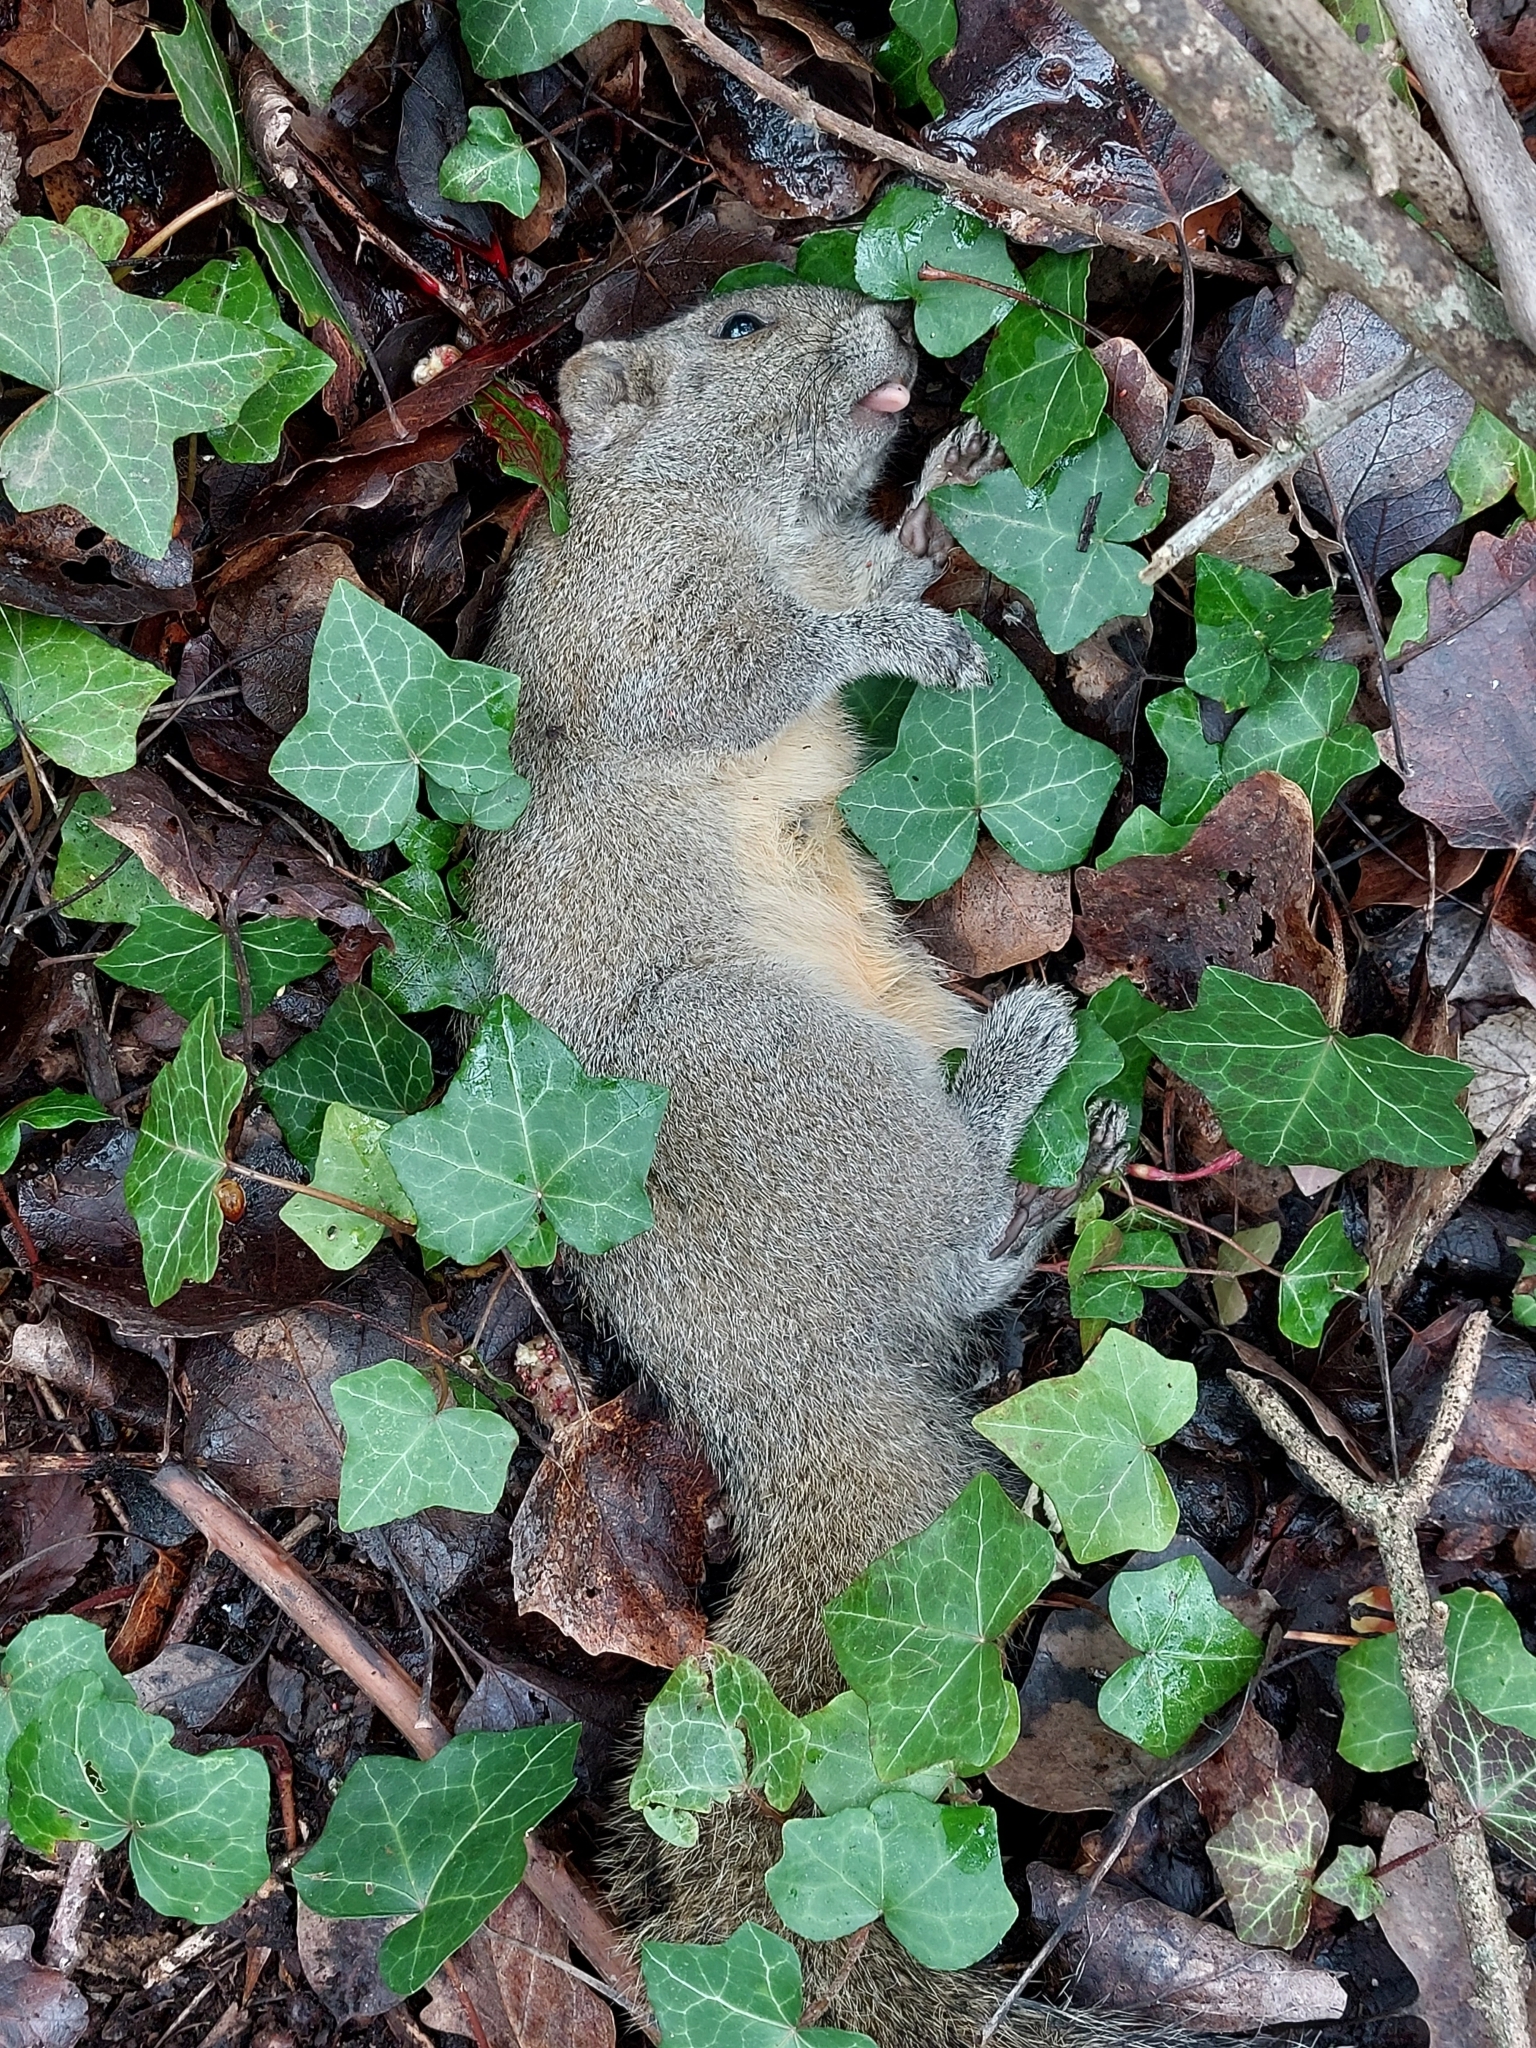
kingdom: Animalia
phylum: Chordata
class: Mammalia
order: Rodentia
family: Sciuridae
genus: Callosciurus
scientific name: Callosciurus erythraeus
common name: Pallas's squirrel
